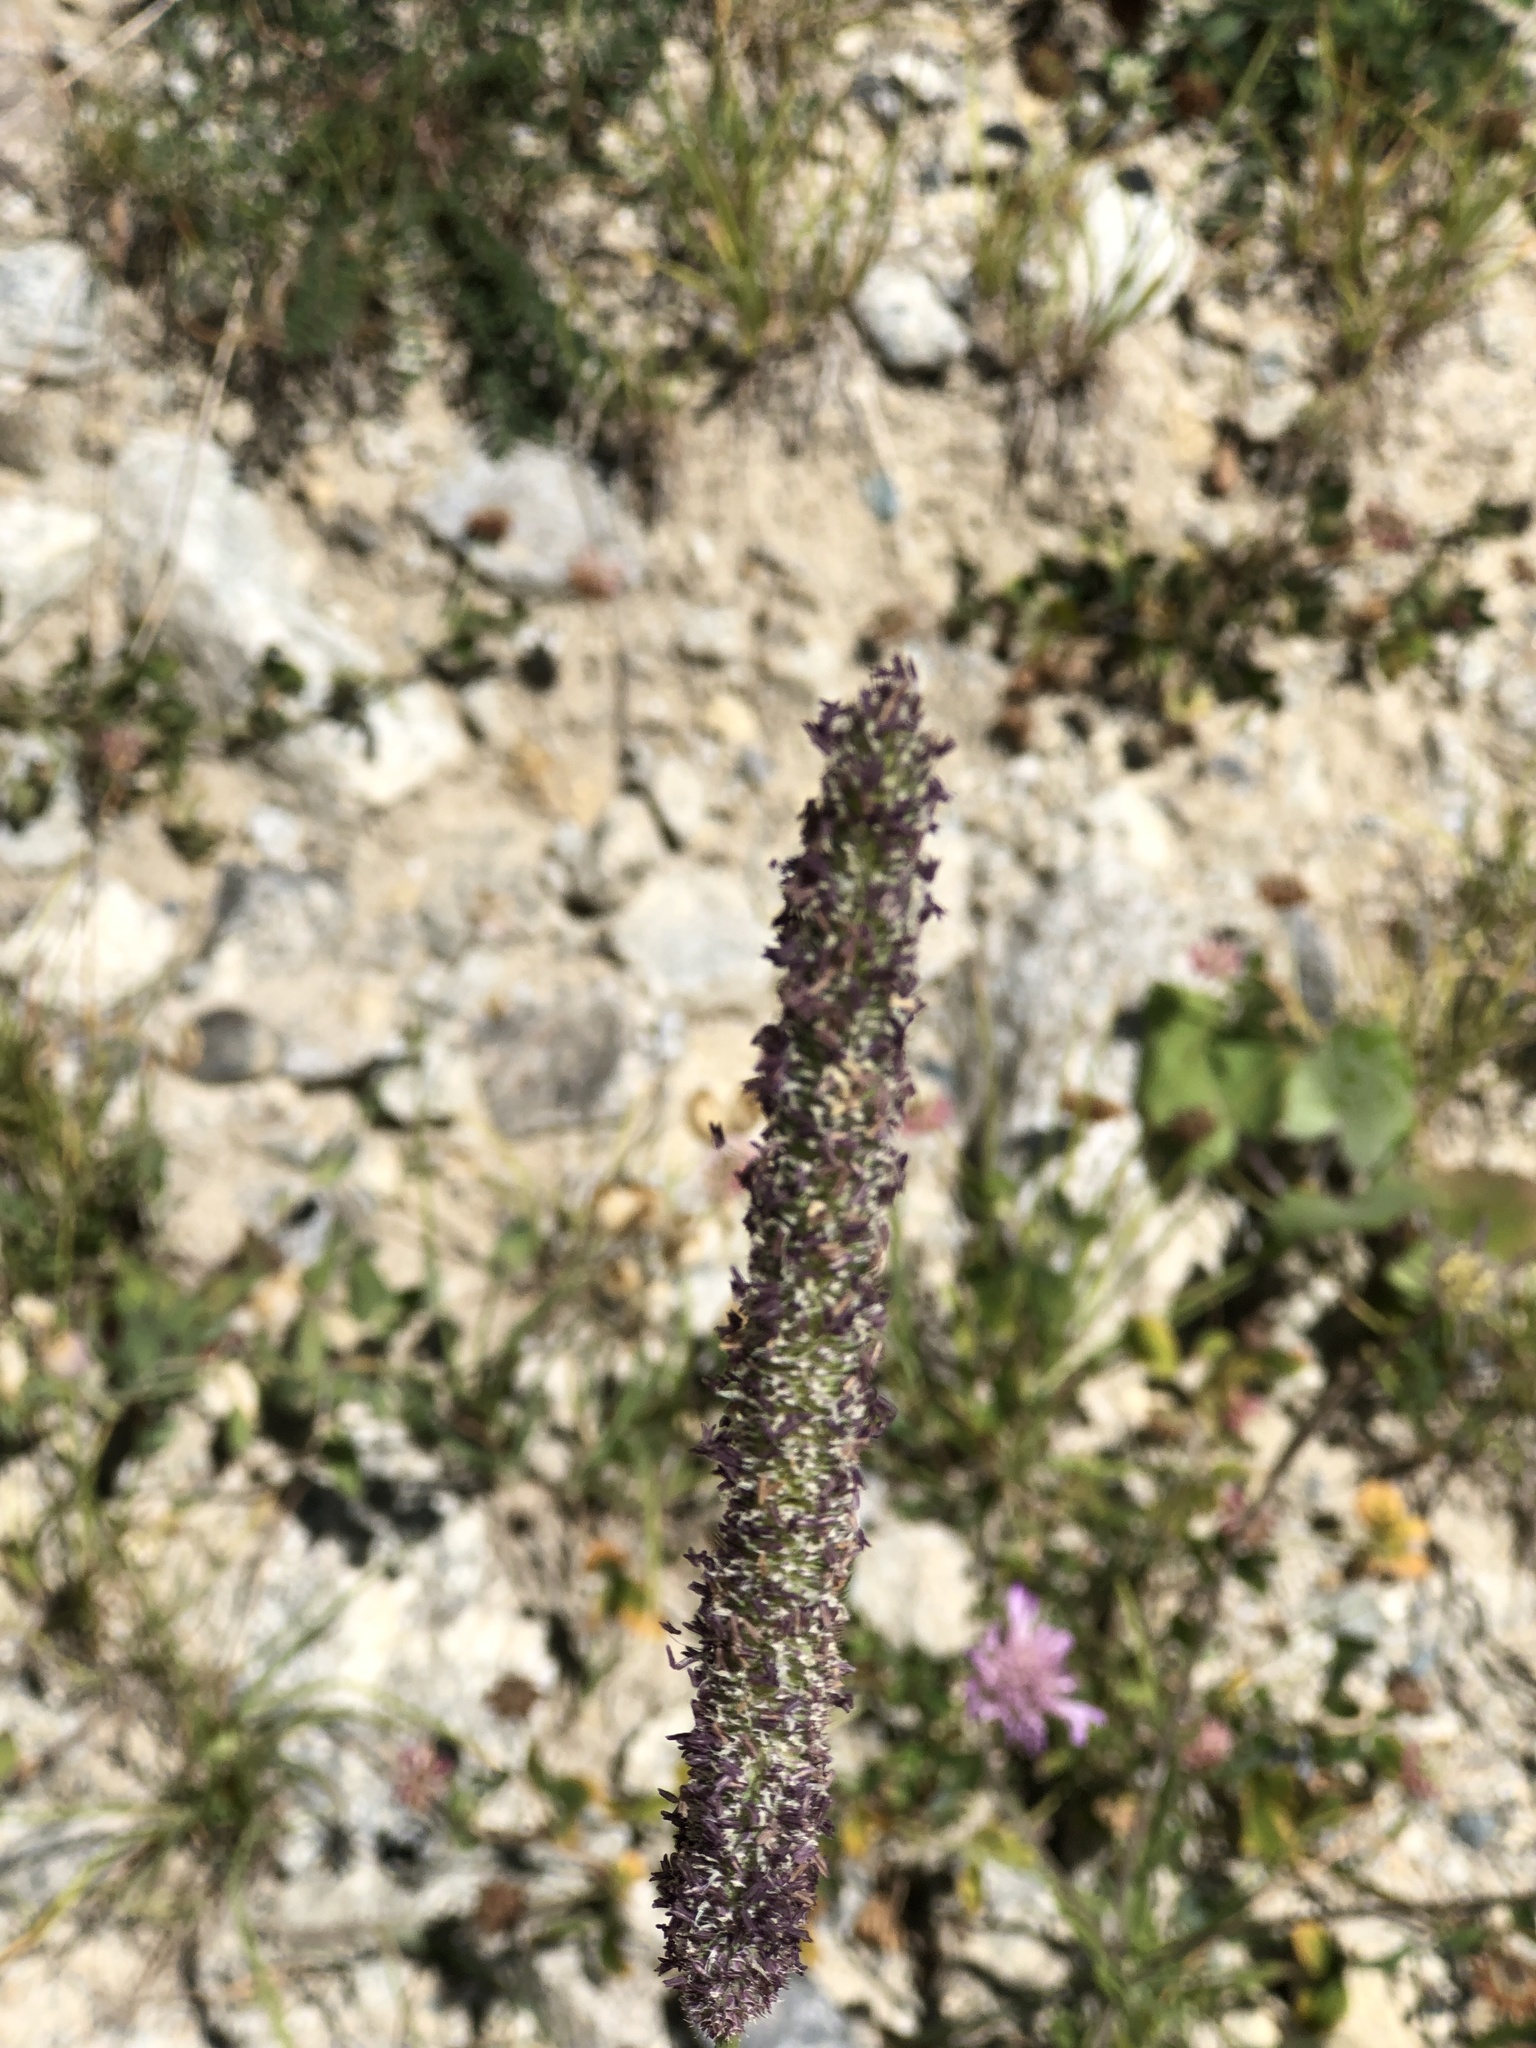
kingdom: Plantae
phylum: Tracheophyta
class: Liliopsida
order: Poales
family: Poaceae
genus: Phleum
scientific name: Phleum pratense
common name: Timothy grass
